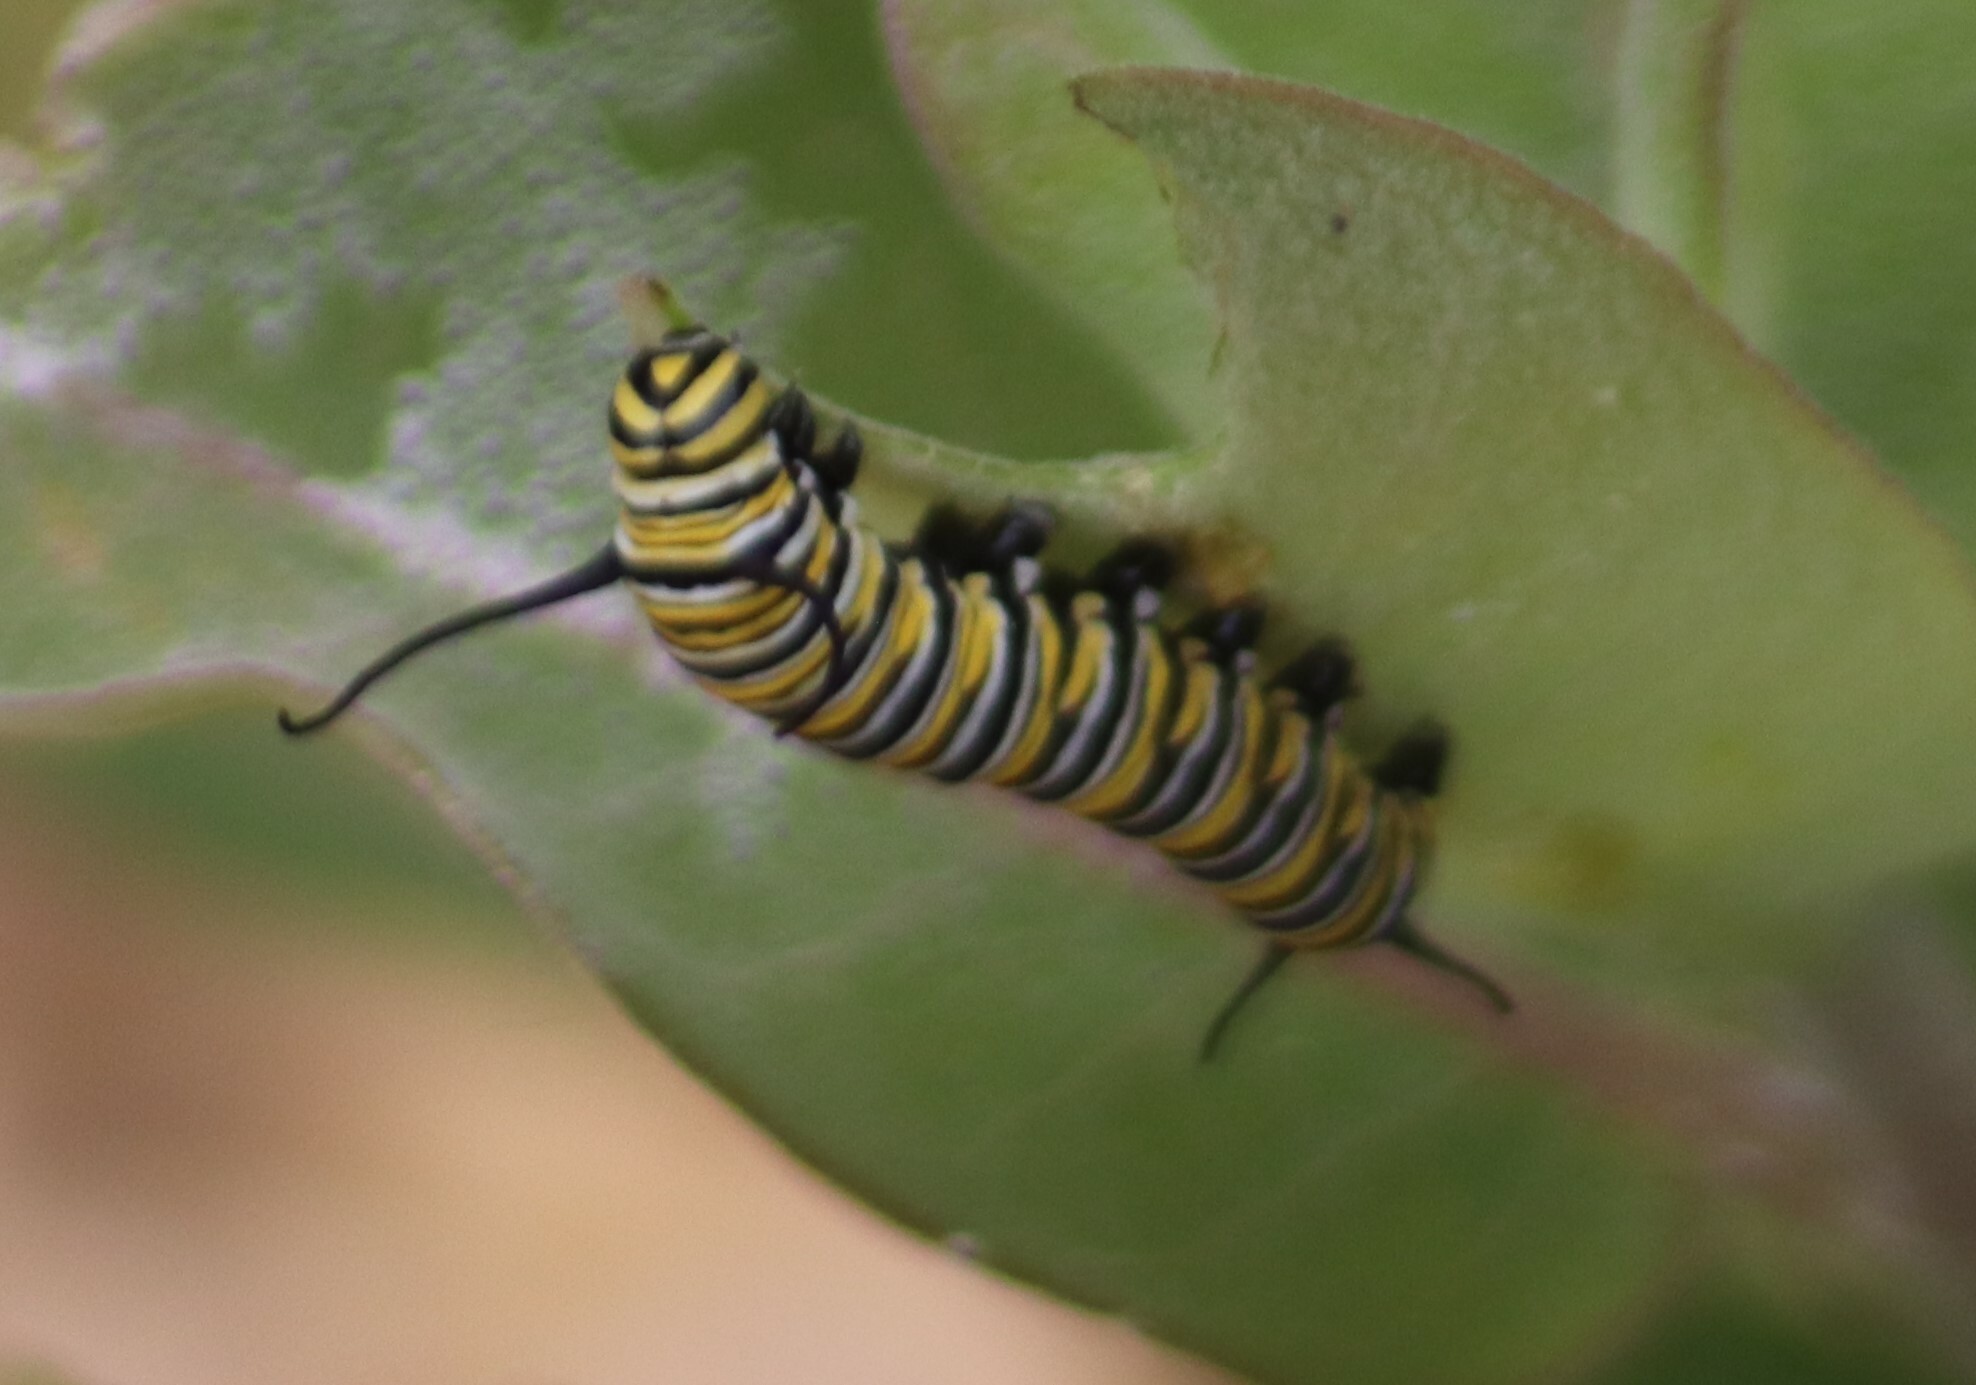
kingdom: Animalia
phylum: Arthropoda
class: Insecta
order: Lepidoptera
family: Nymphalidae
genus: Danaus
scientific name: Danaus plexippus
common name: Monarch
